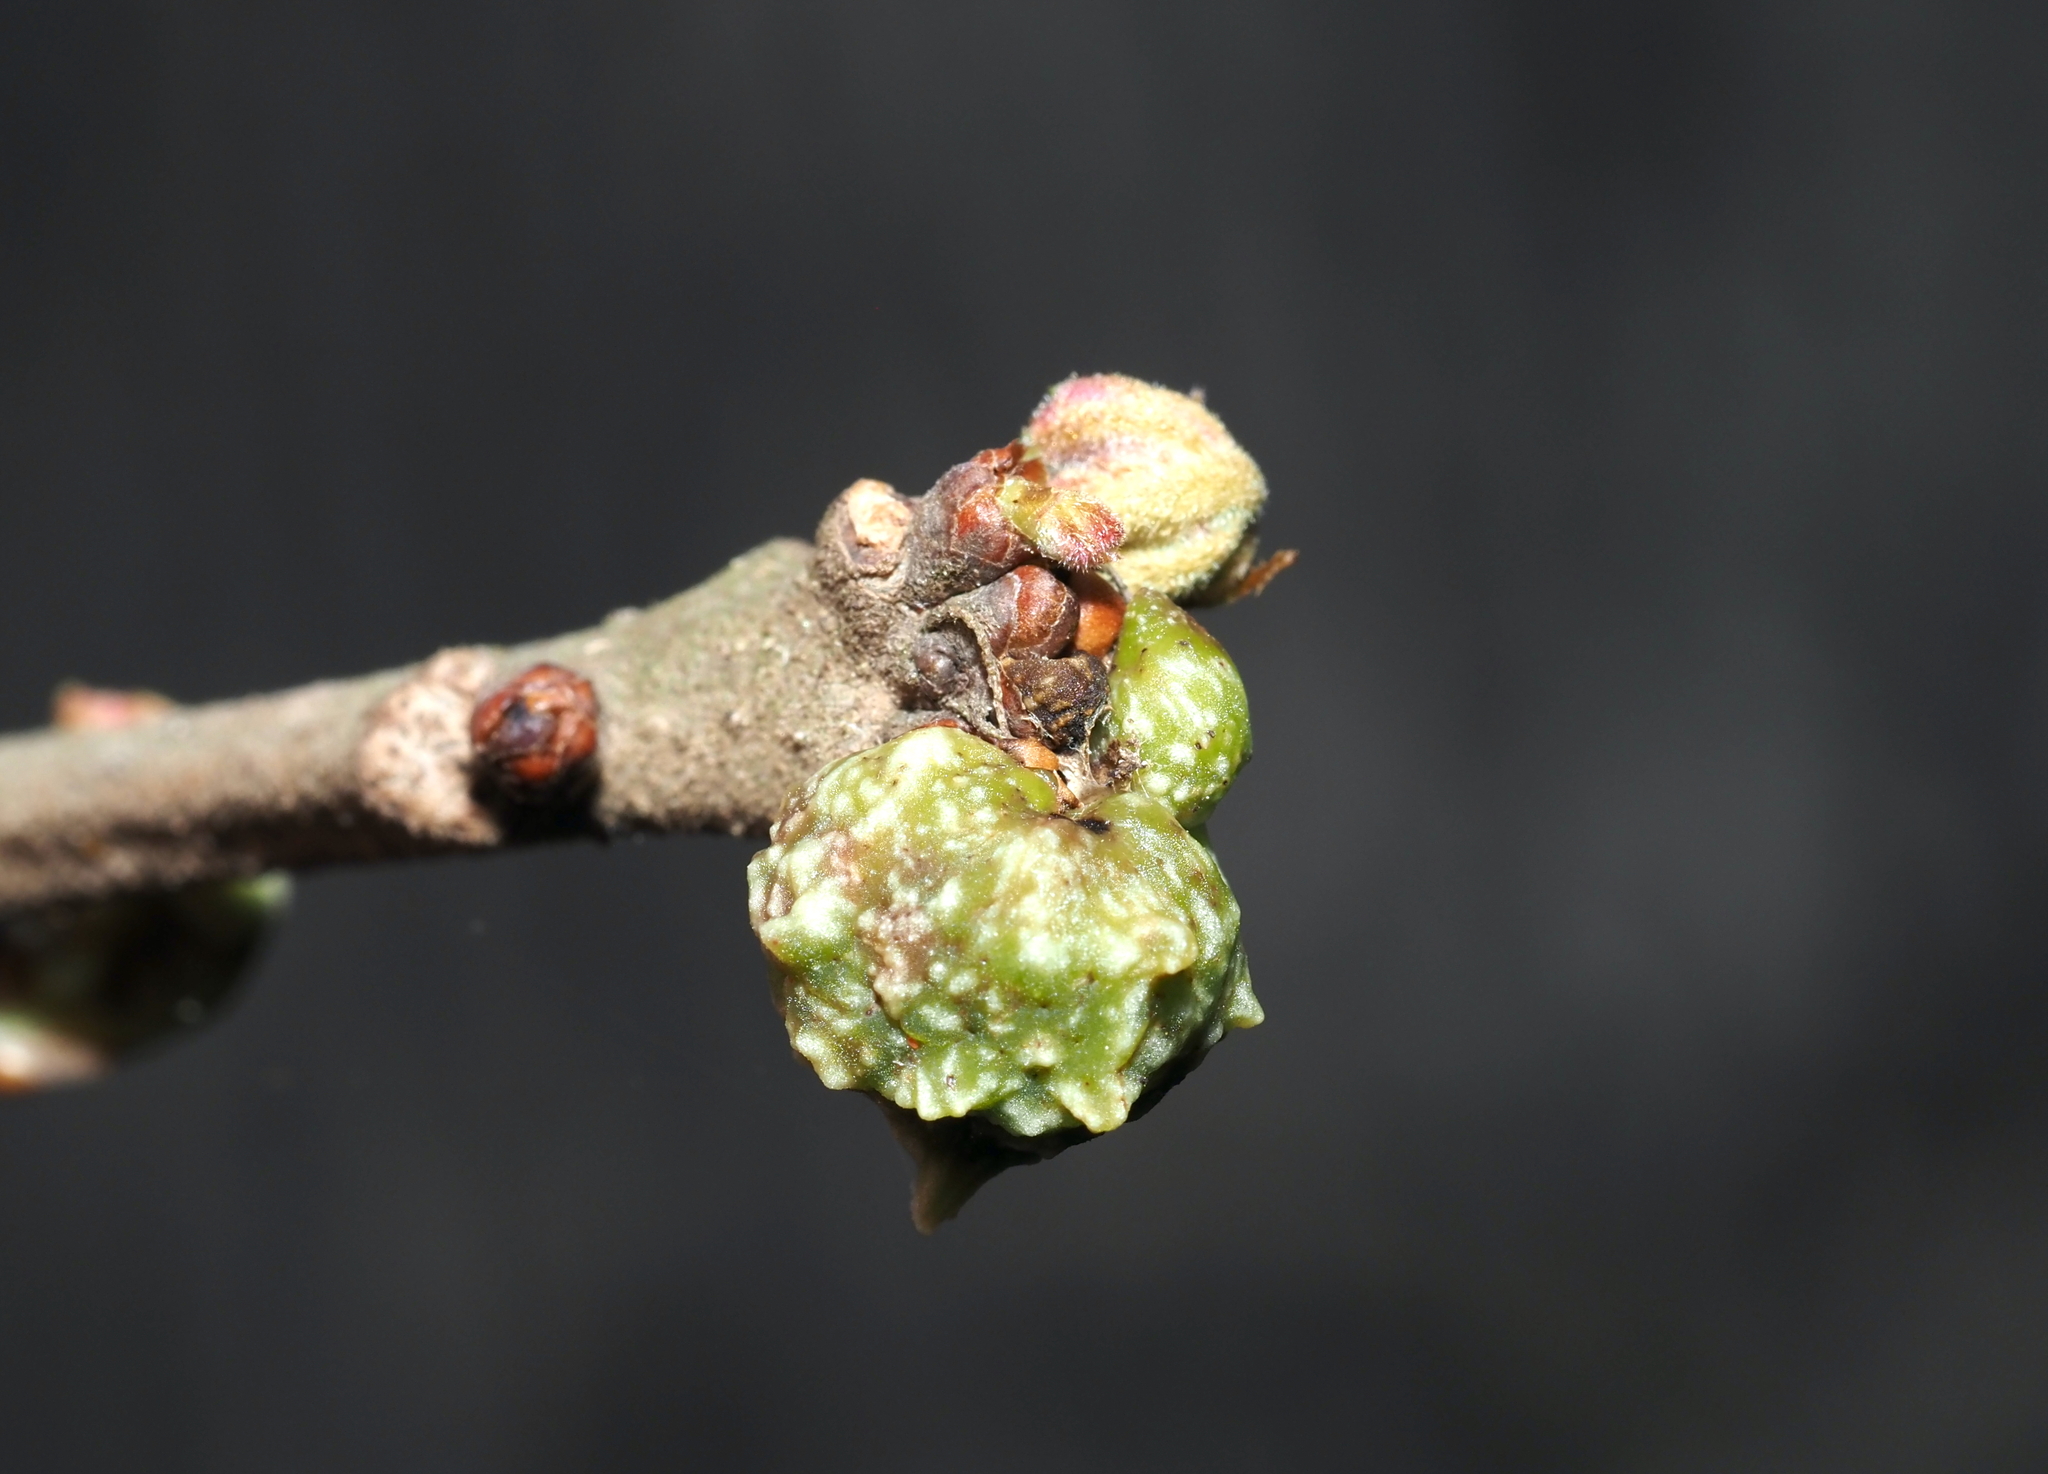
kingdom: Animalia
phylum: Arthropoda
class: Insecta
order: Hymenoptera
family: Cynipidae
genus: Andricus
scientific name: Andricus
